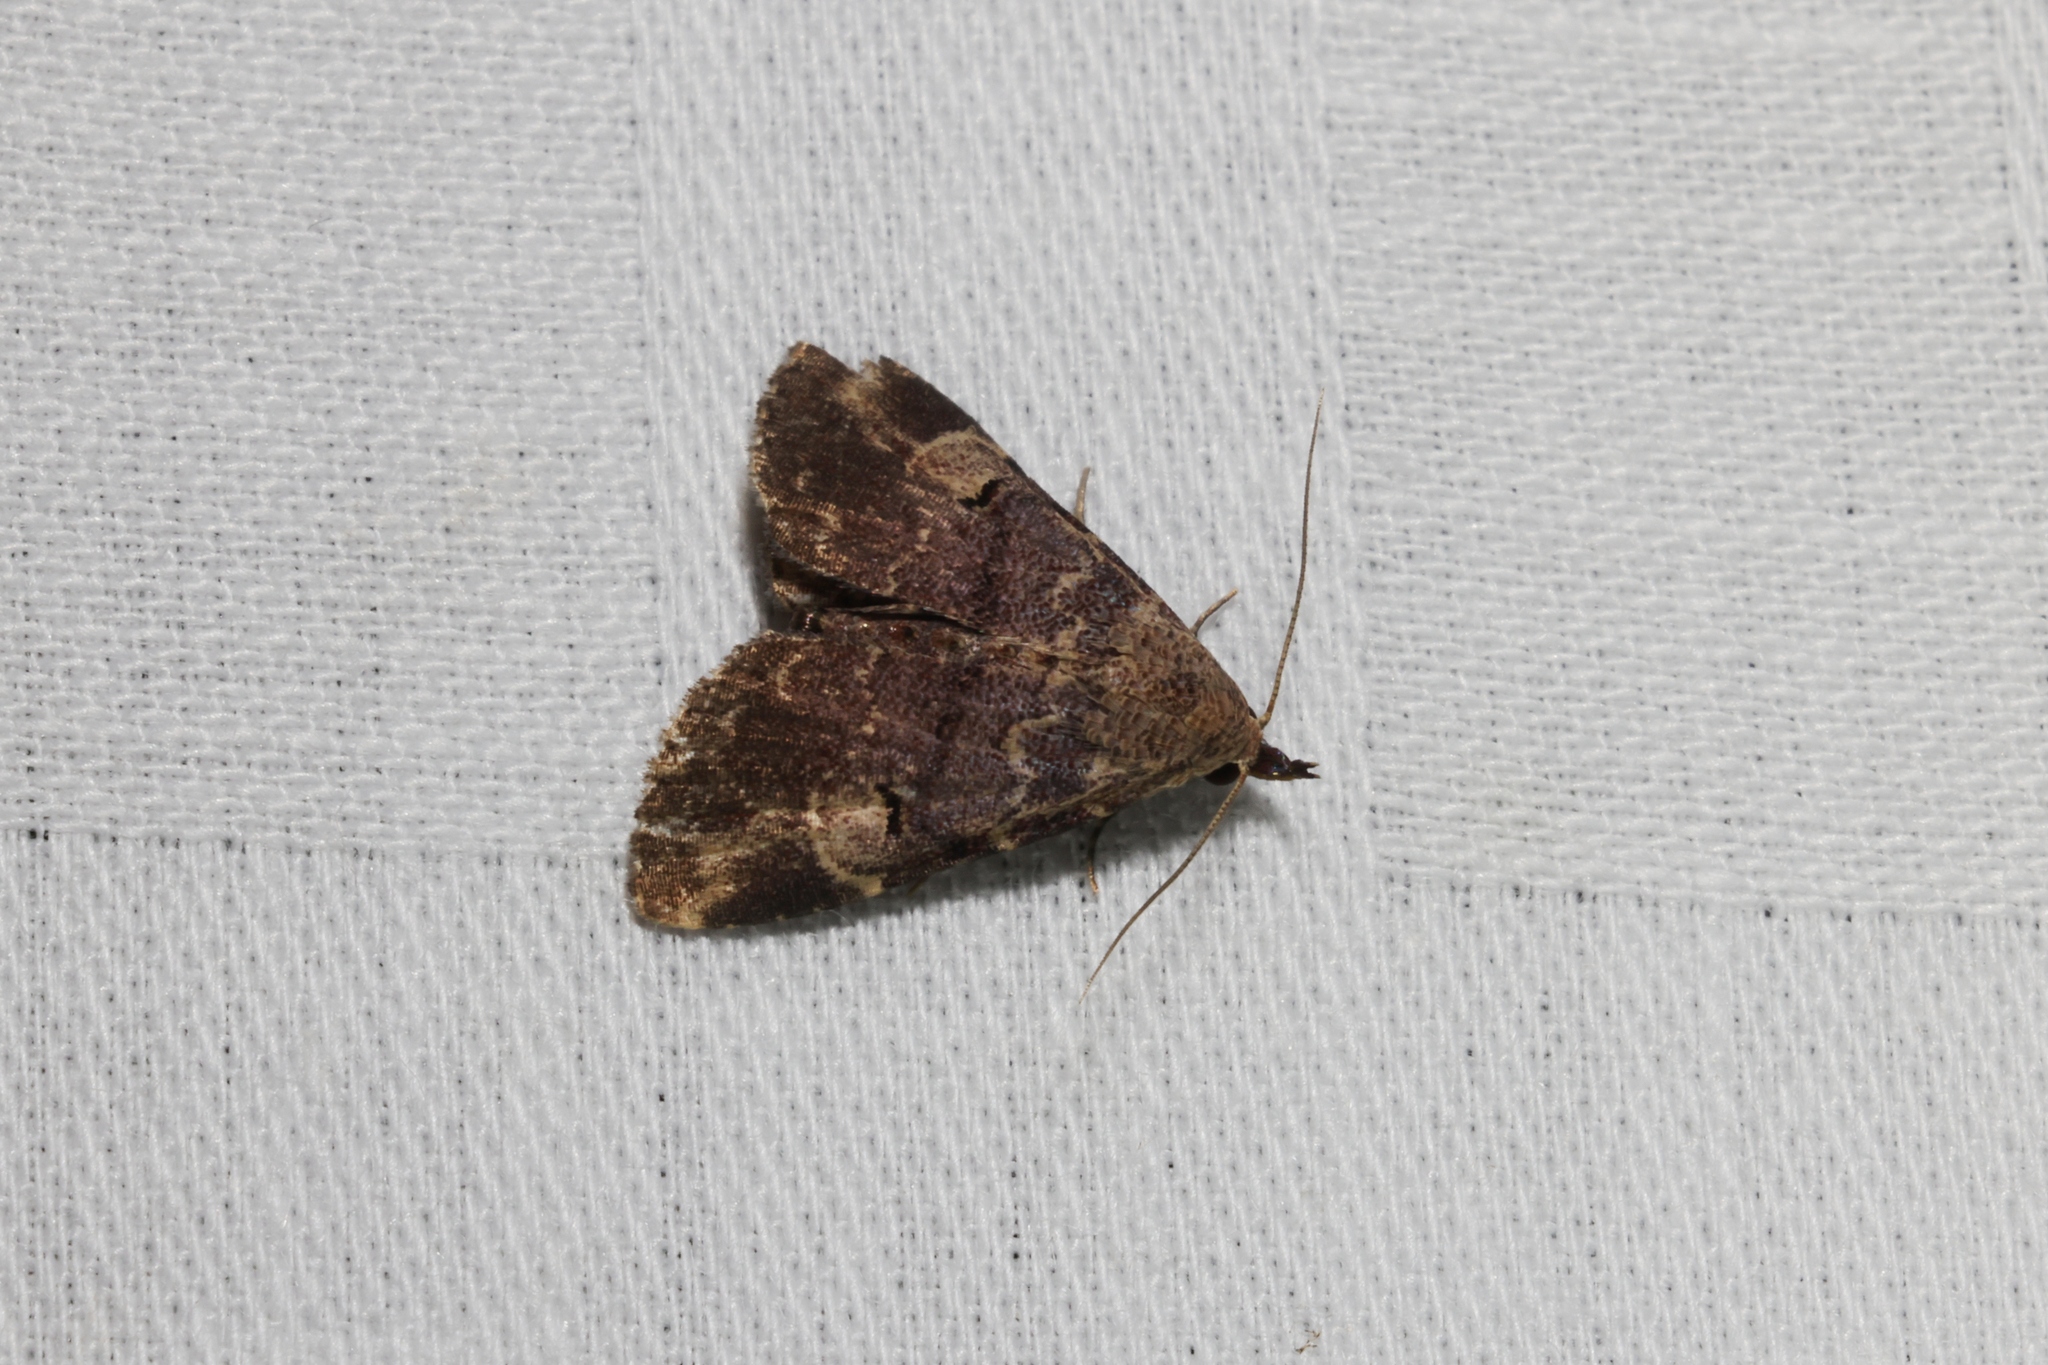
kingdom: Animalia
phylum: Arthropoda
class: Insecta
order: Lepidoptera
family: Erebidae
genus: Maguda
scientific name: Maguda suffusa
